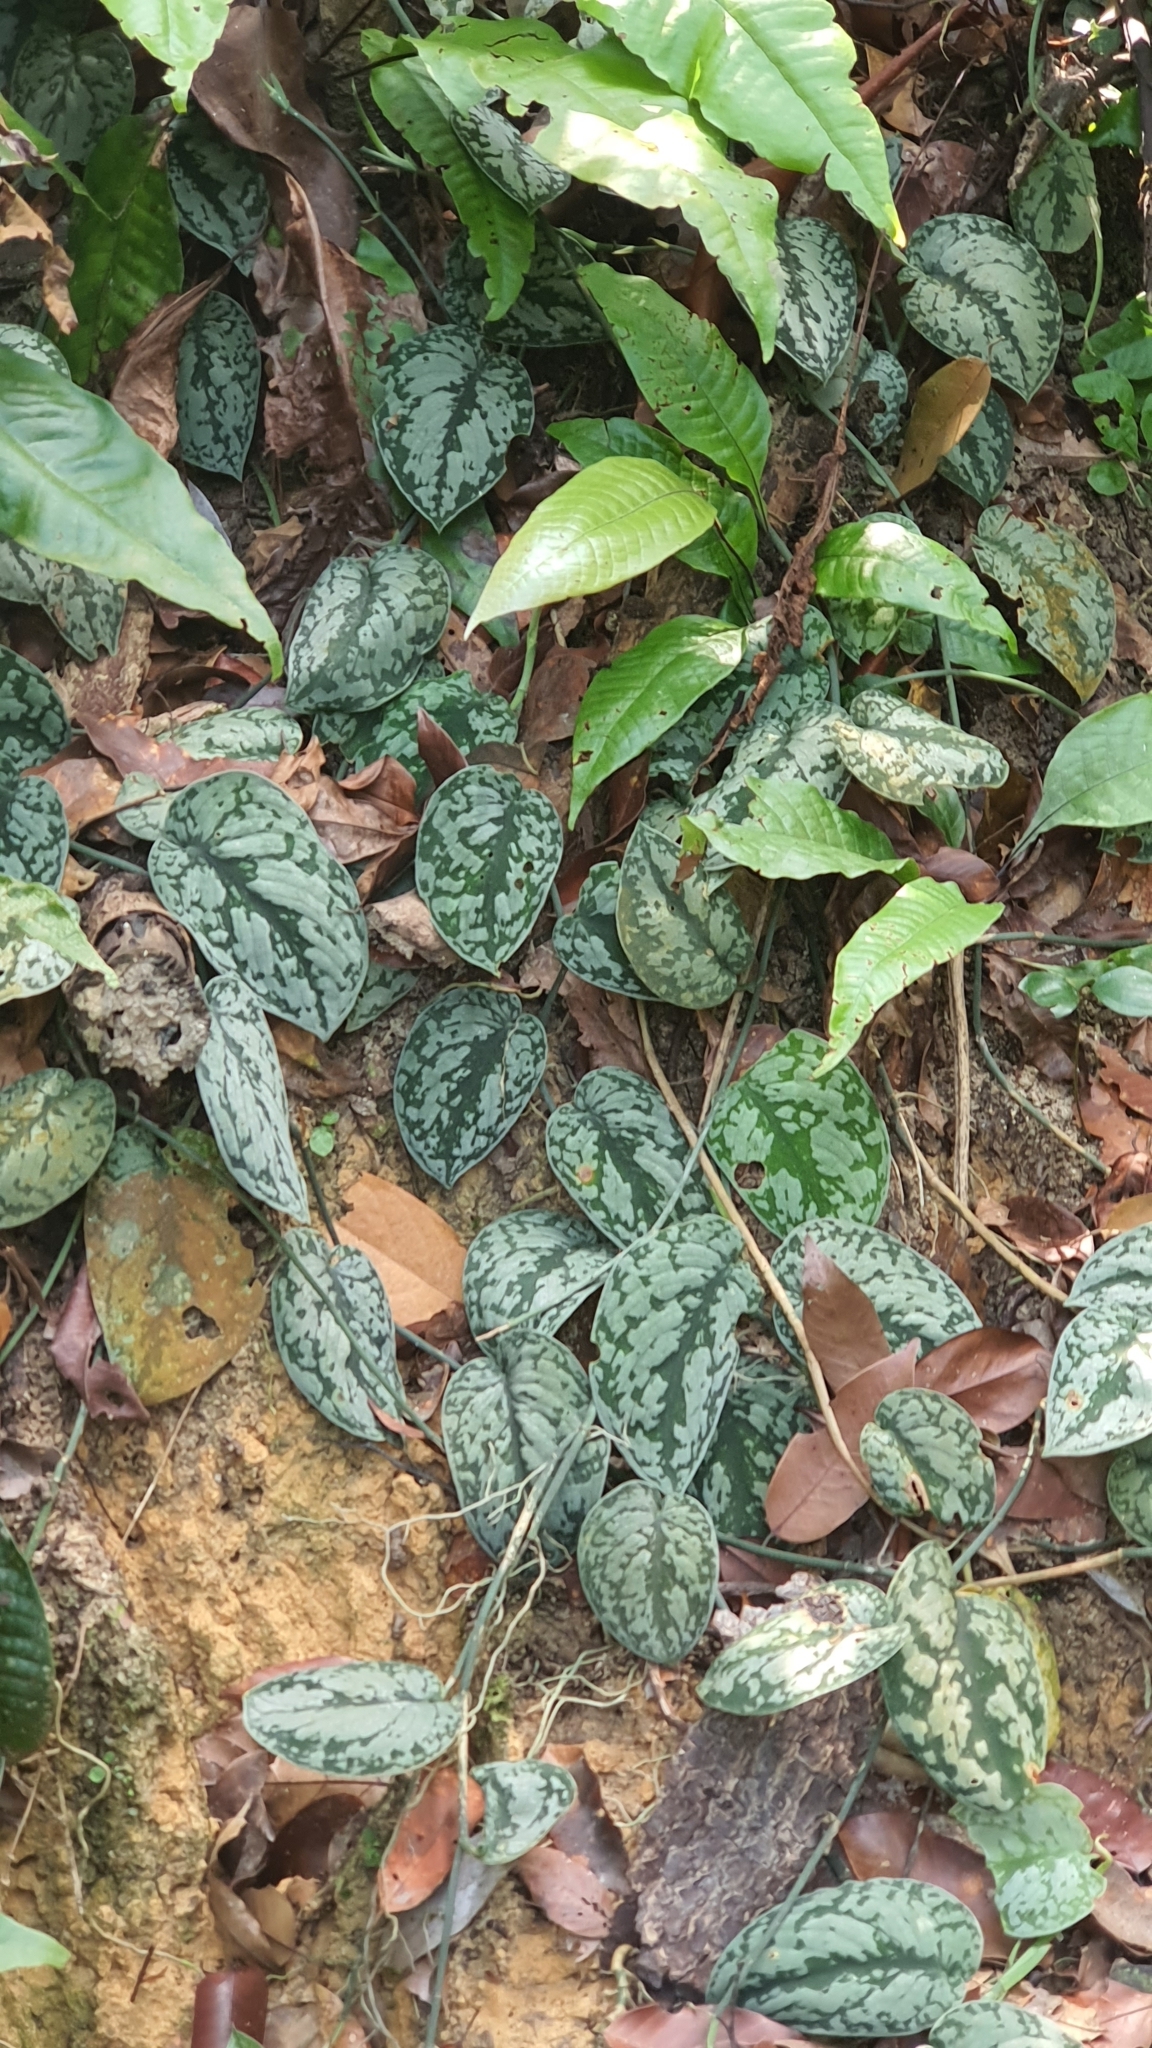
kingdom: Plantae
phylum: Tracheophyta
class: Liliopsida
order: Alismatales
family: Araceae
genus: Scindapsus
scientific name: Scindapsus pictus
